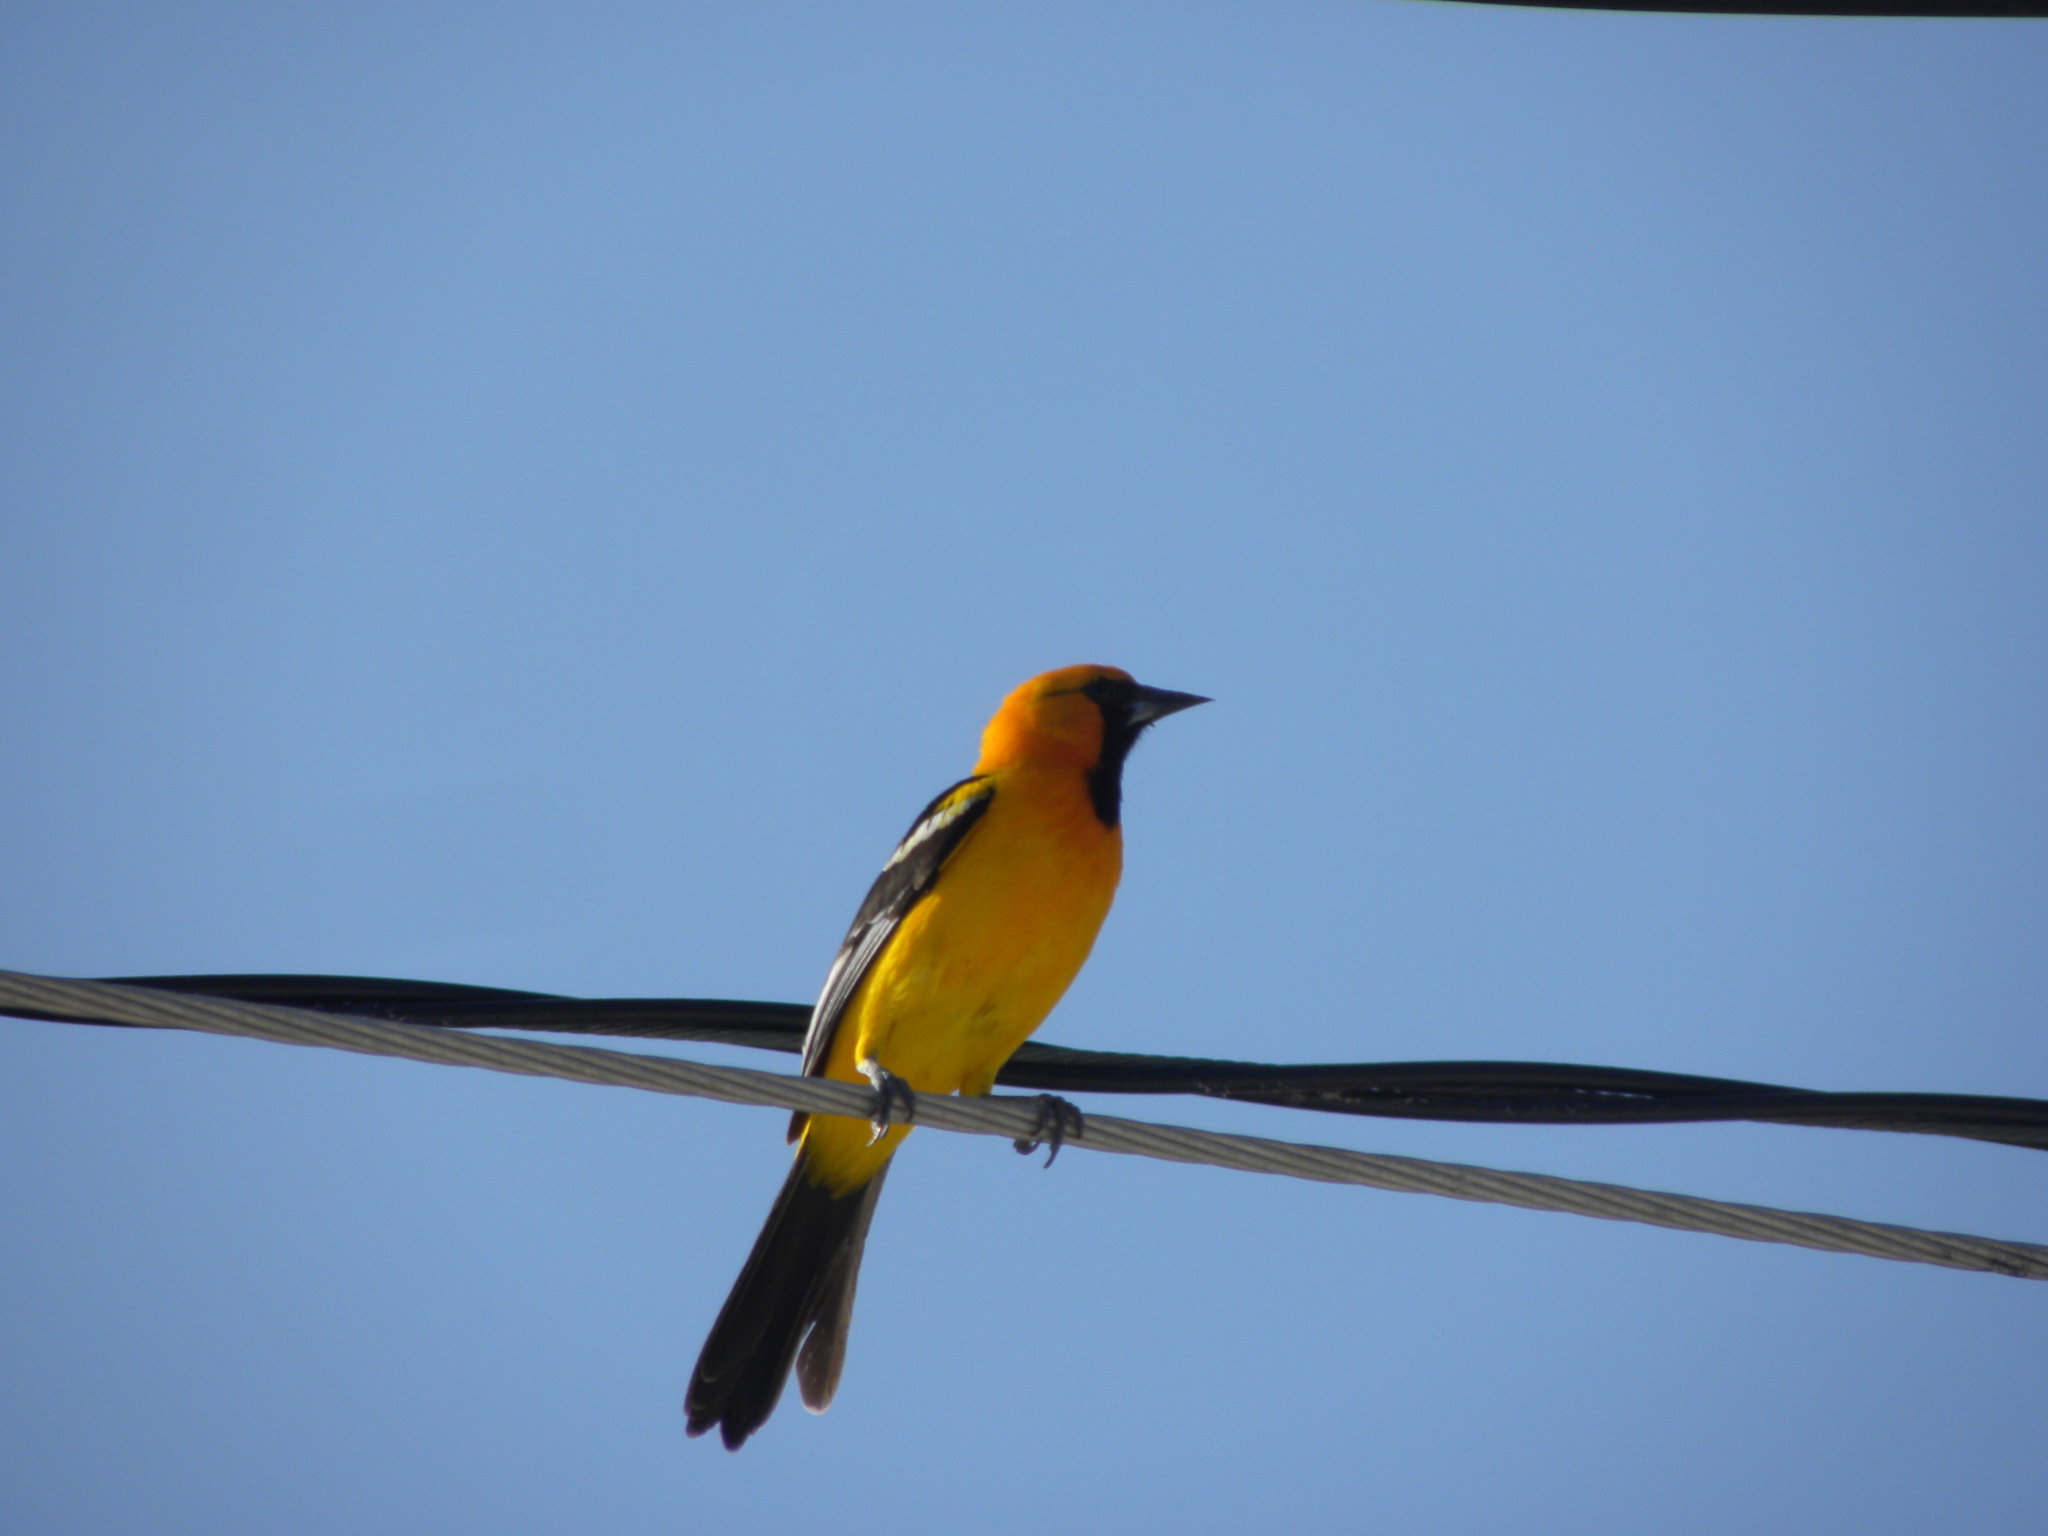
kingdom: Animalia
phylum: Chordata
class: Aves
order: Passeriformes
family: Icteridae
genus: Icterus
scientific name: Icterus gularis
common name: Altamira oriole
